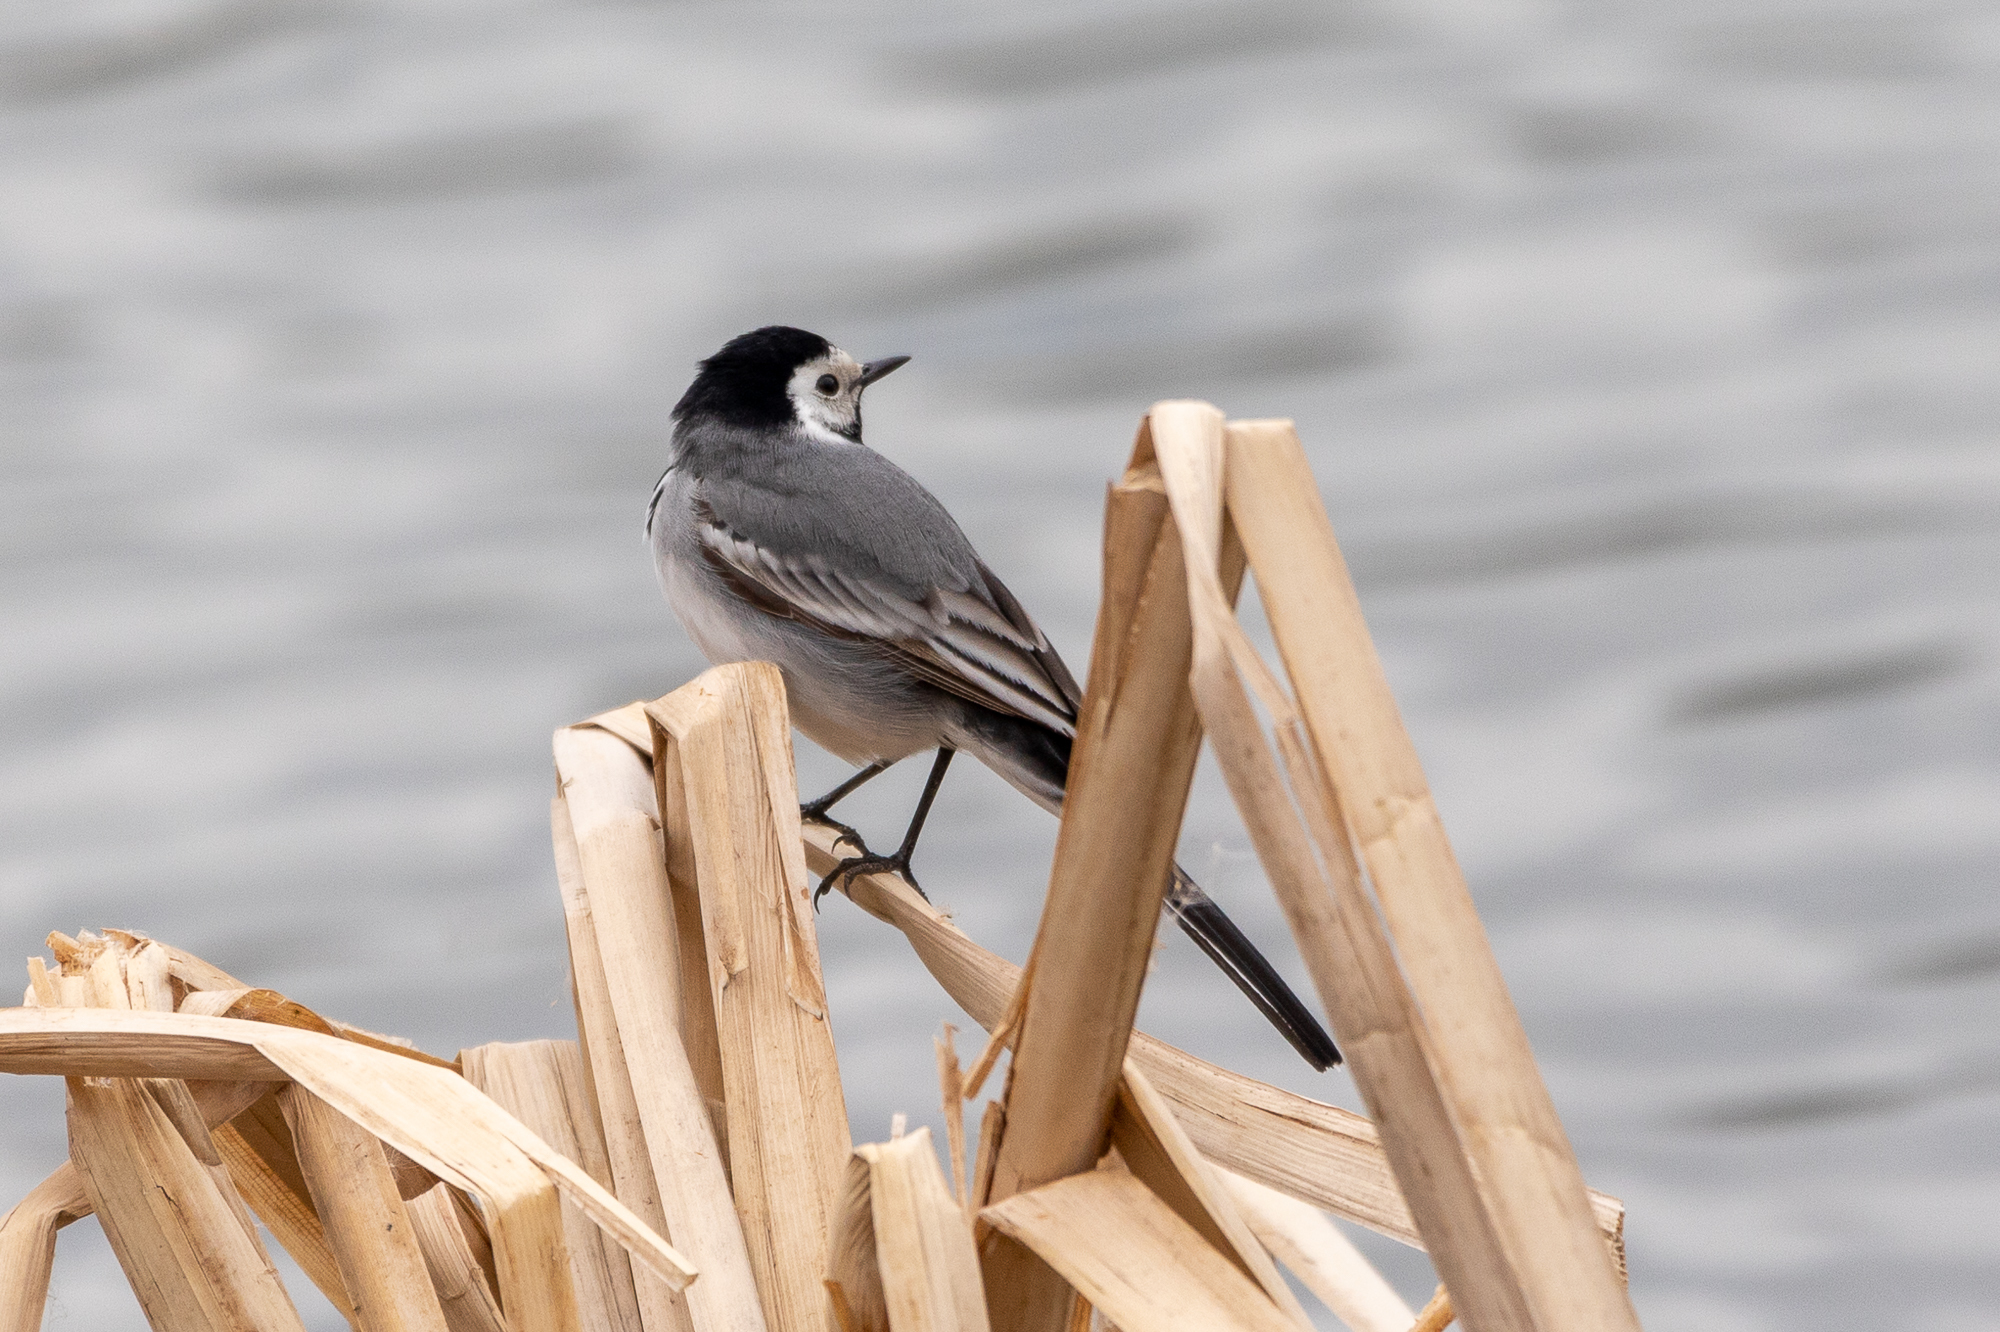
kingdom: Animalia
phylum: Chordata
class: Aves
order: Passeriformes
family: Motacillidae
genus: Motacilla
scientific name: Motacilla alba
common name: White wagtail
